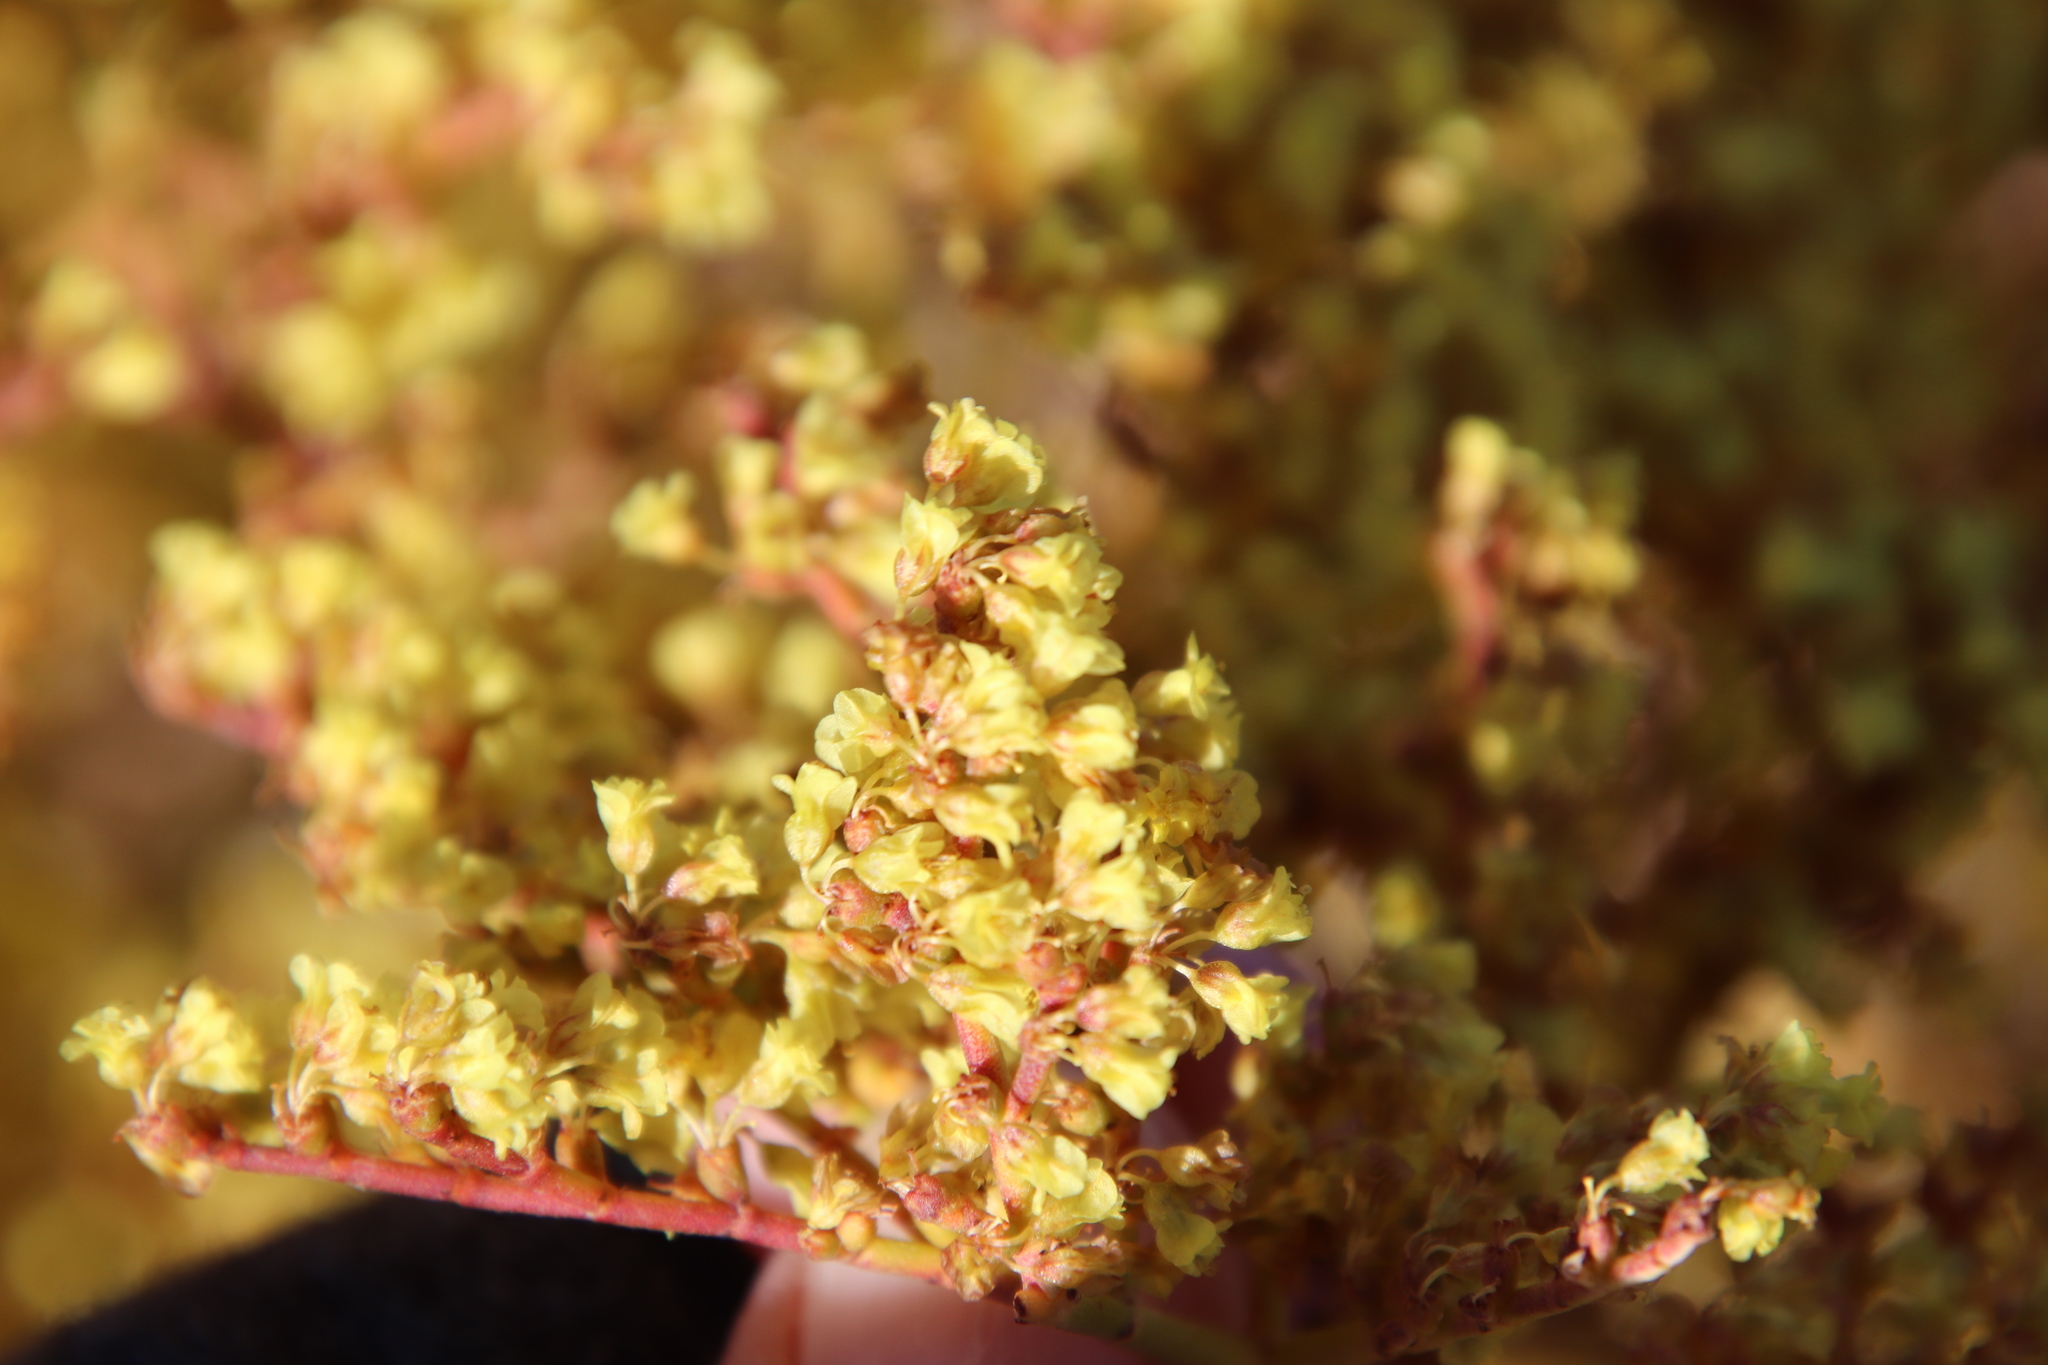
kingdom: Plantae
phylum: Tracheophyta
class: Magnoliopsida
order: Caryophyllales
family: Polygonaceae
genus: Eriogonum
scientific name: Eriogonum corymbosum
